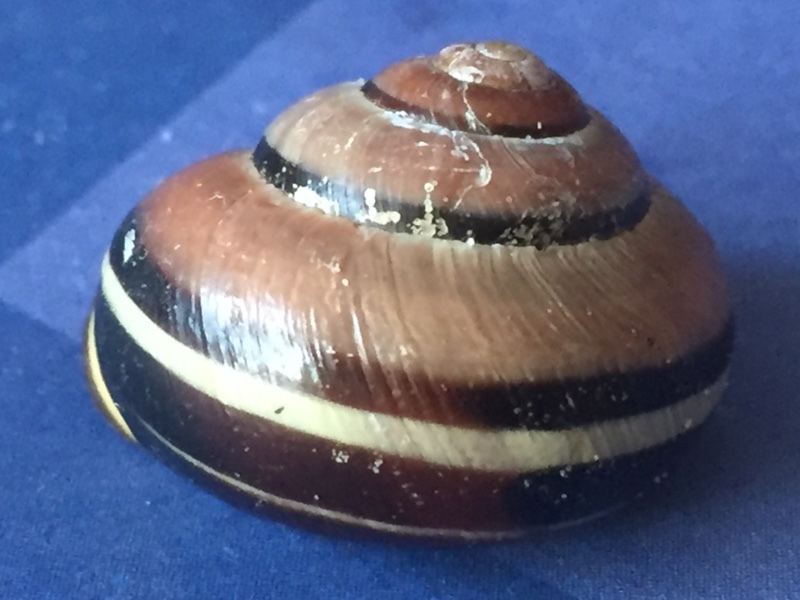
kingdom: Animalia
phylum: Mollusca
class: Gastropoda
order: Stylommatophora
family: Helicidae
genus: Cepaea
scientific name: Cepaea nemoralis
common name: Grovesnail
